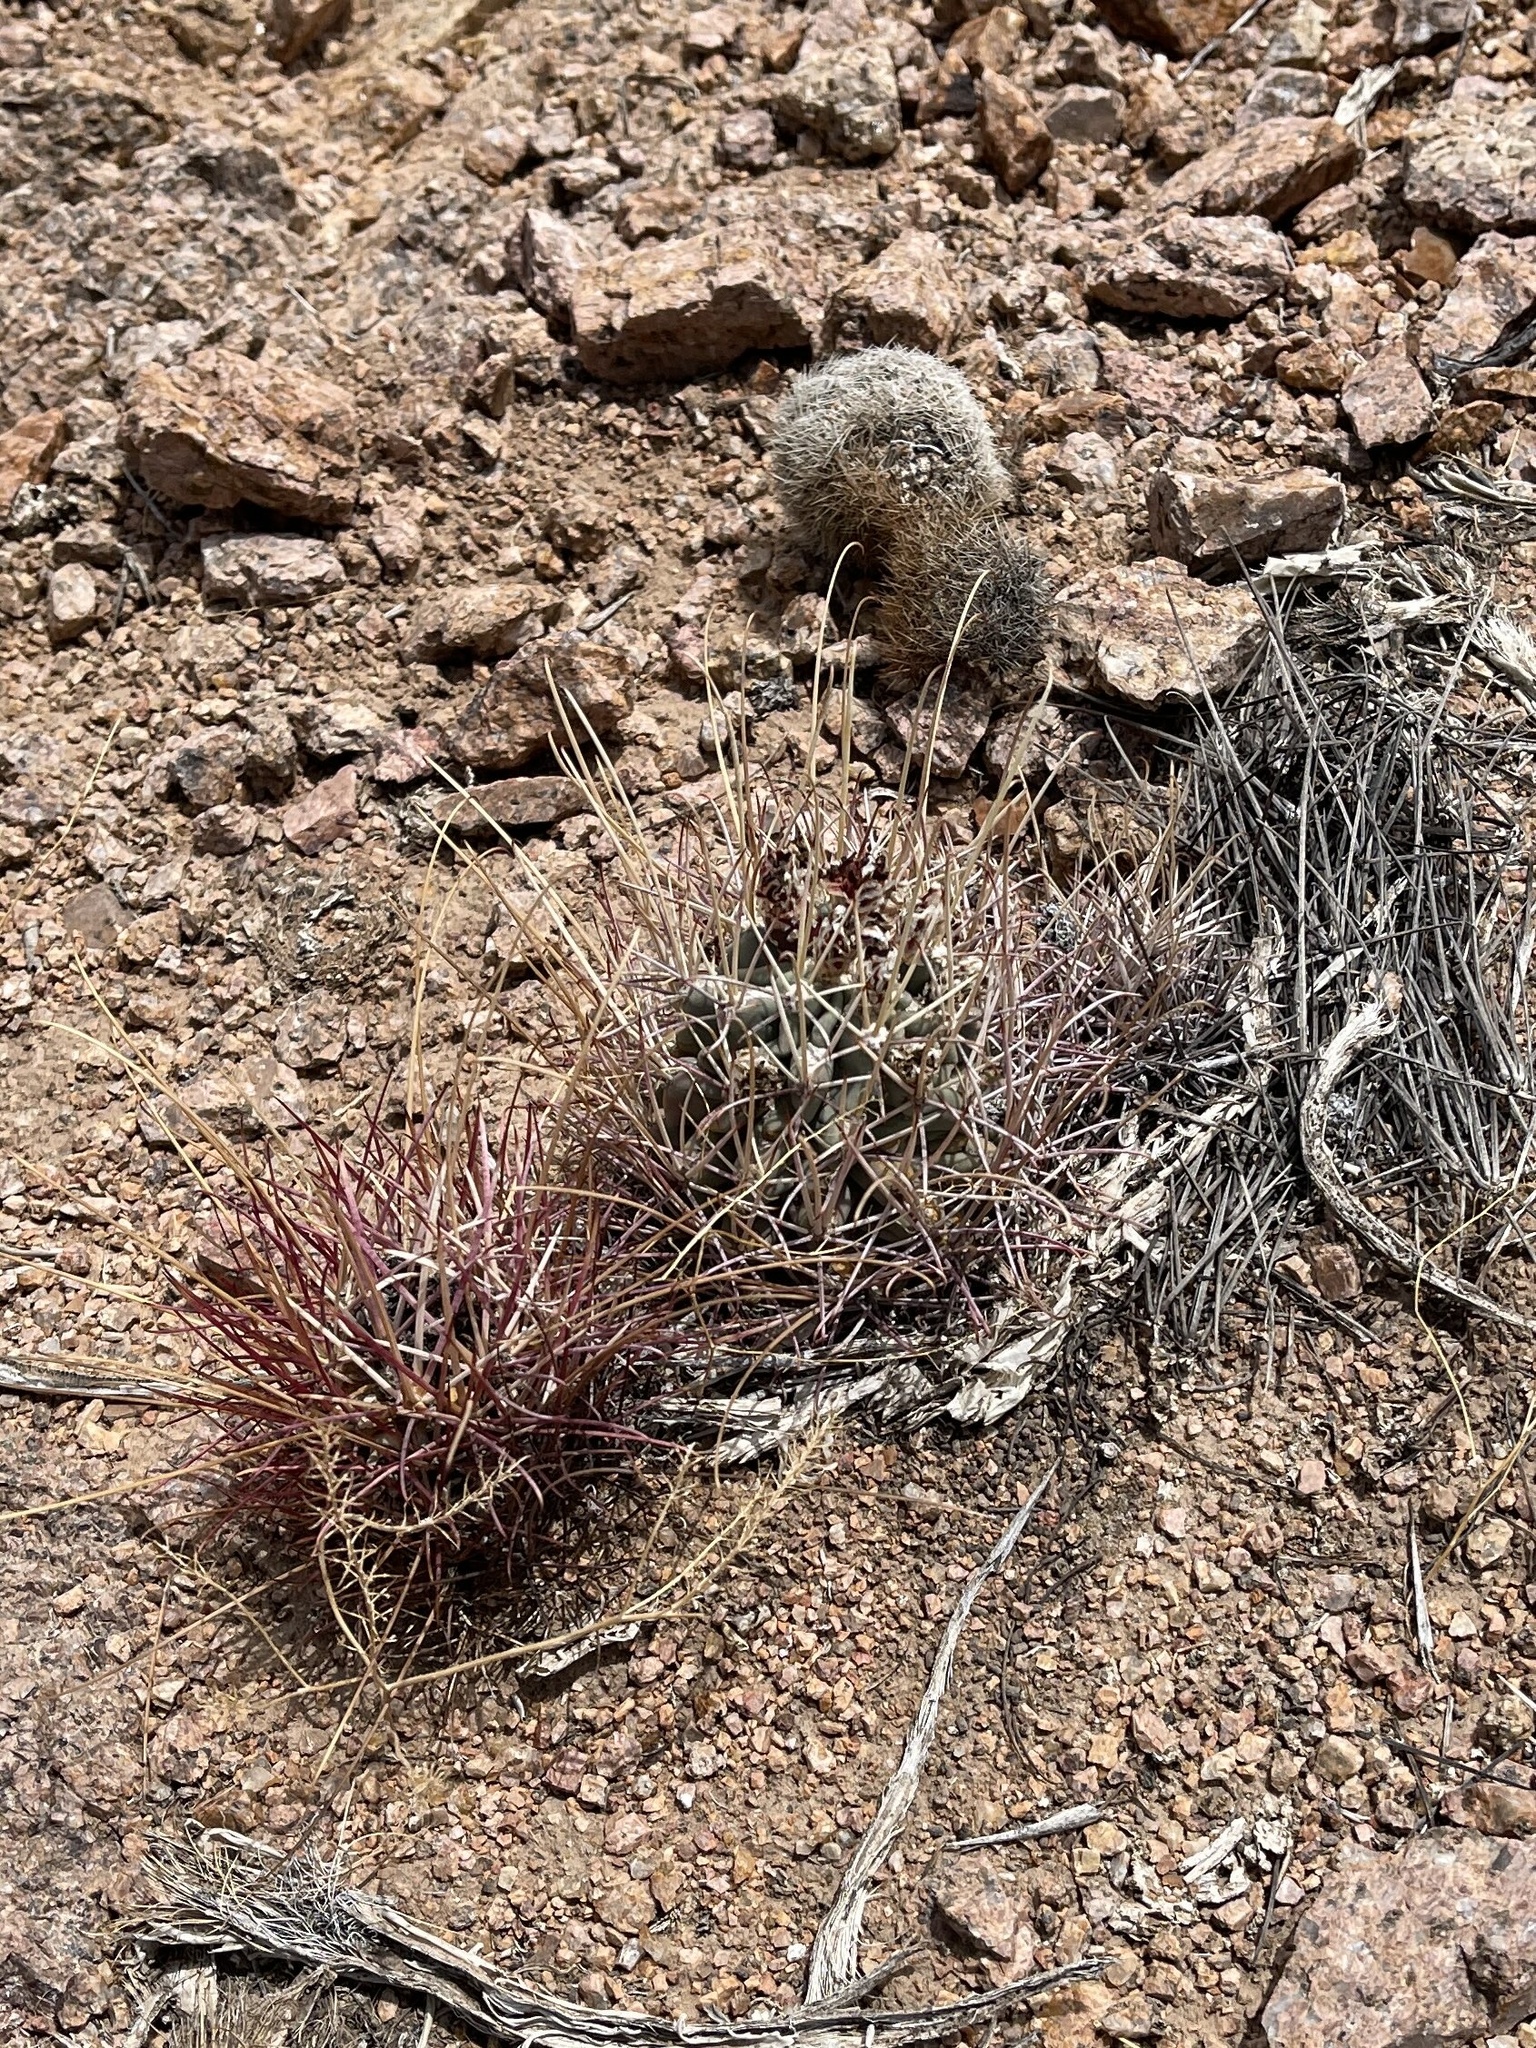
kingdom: Plantae
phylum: Tracheophyta
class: Magnoliopsida
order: Caryophyllales
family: Cactaceae
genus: Ferocactus
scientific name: Ferocactus uncinatus
